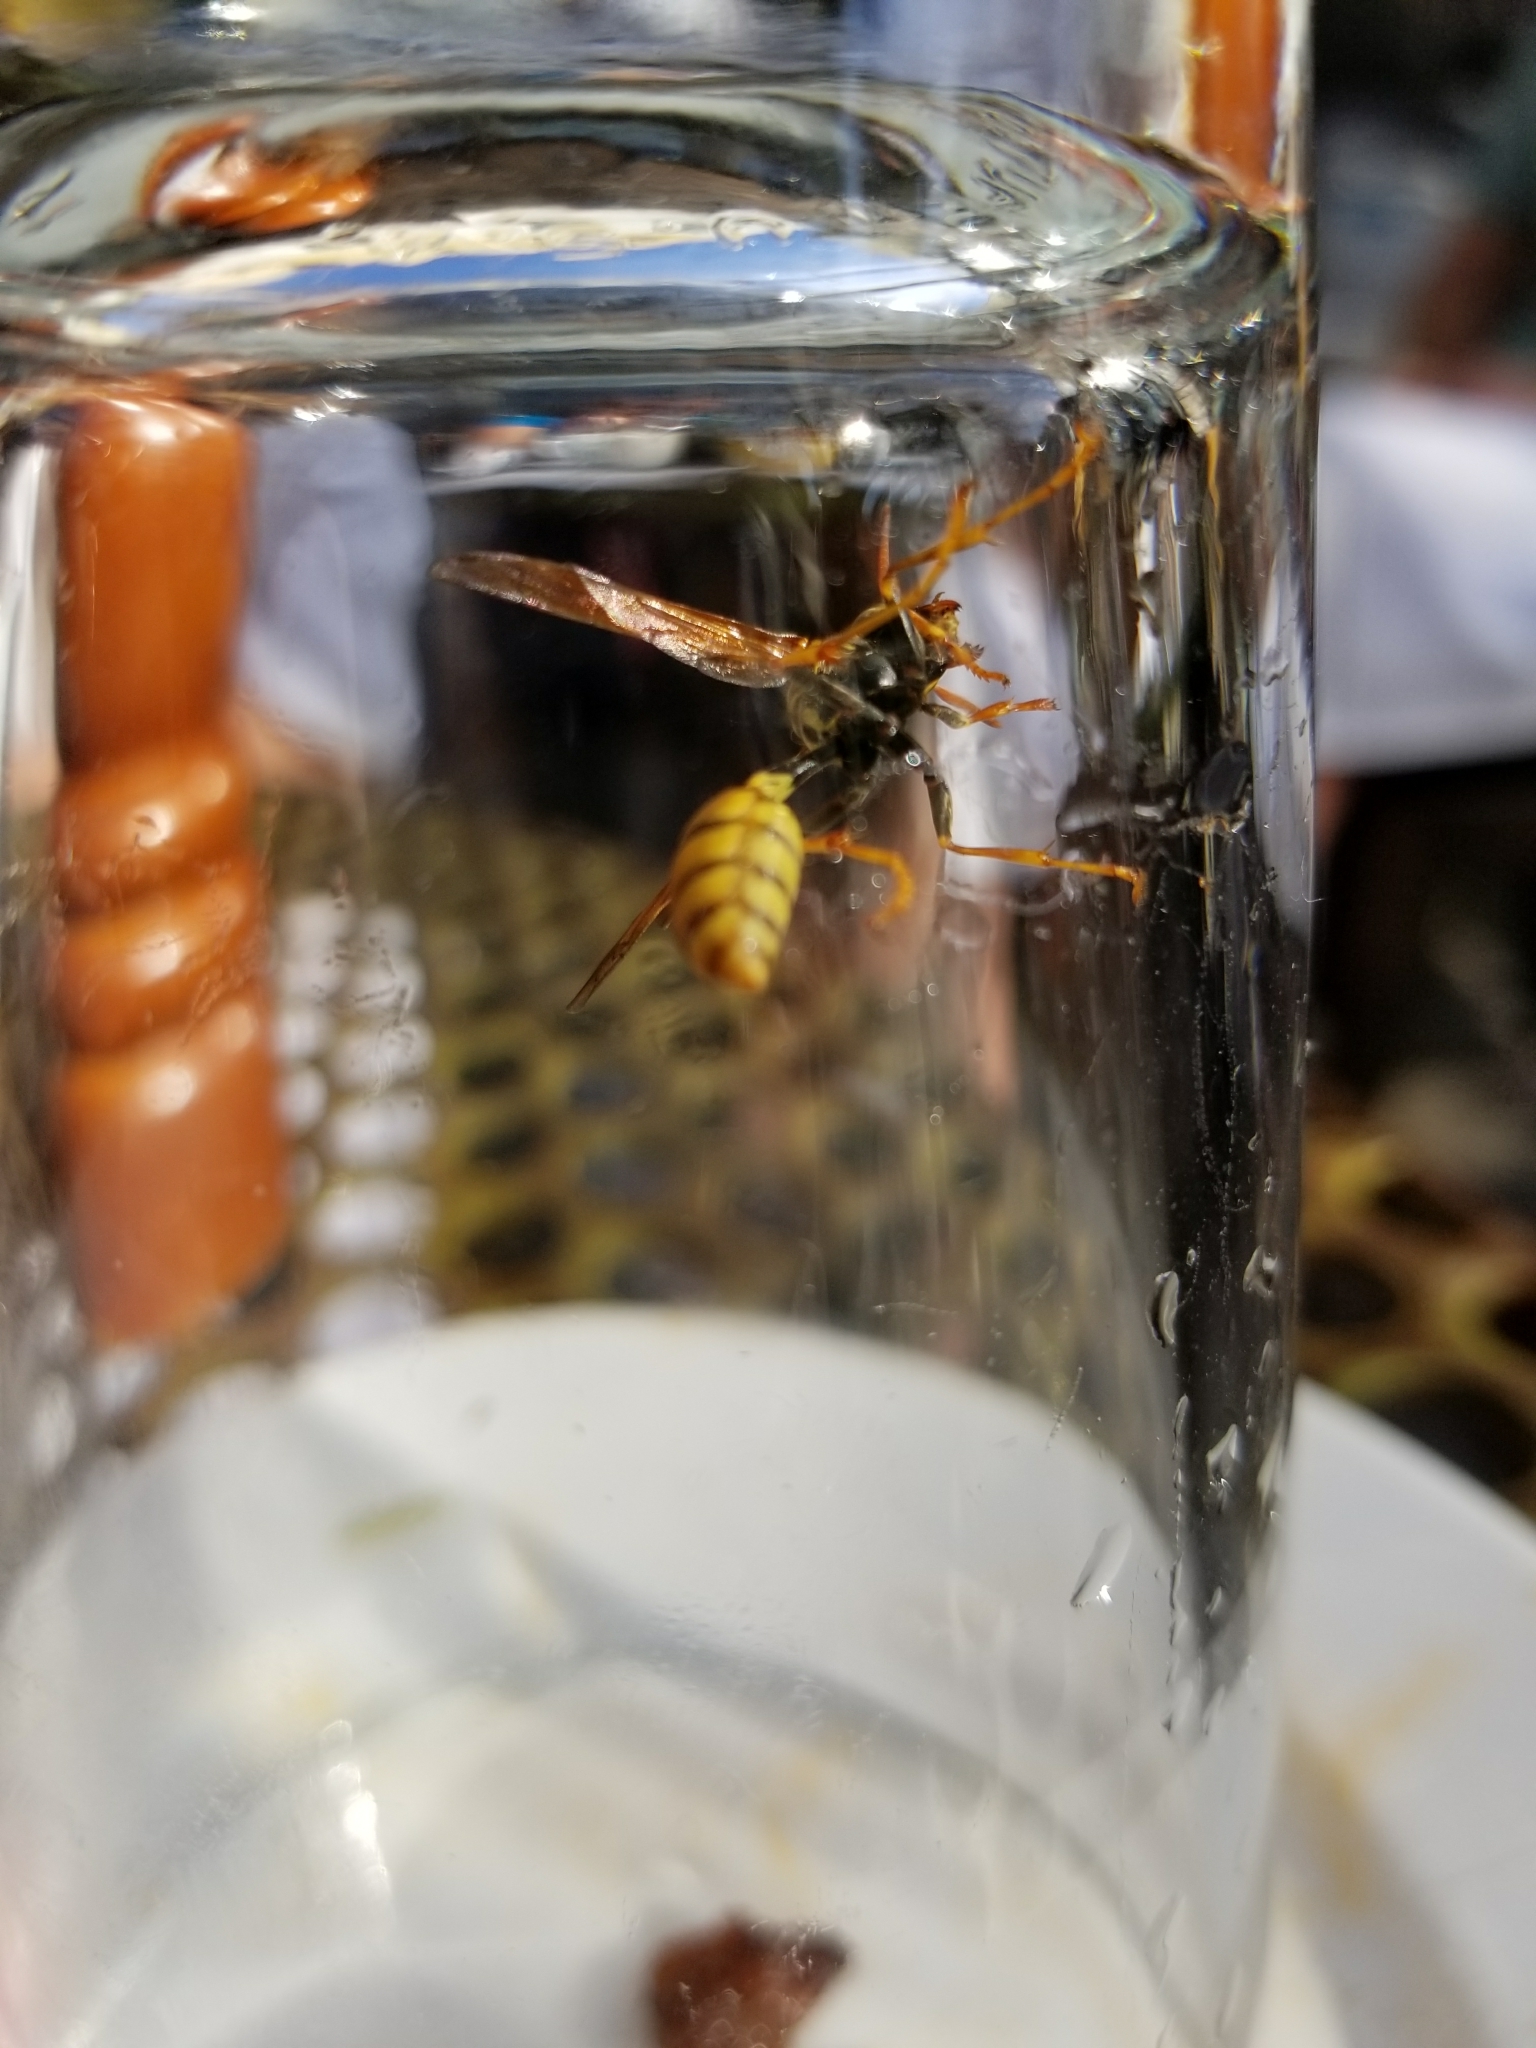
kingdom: Animalia
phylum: Arthropoda
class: Insecta
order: Hymenoptera
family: Vespidae
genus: Mischocyttarus
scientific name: Mischocyttarus flavitarsis
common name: Wasp
